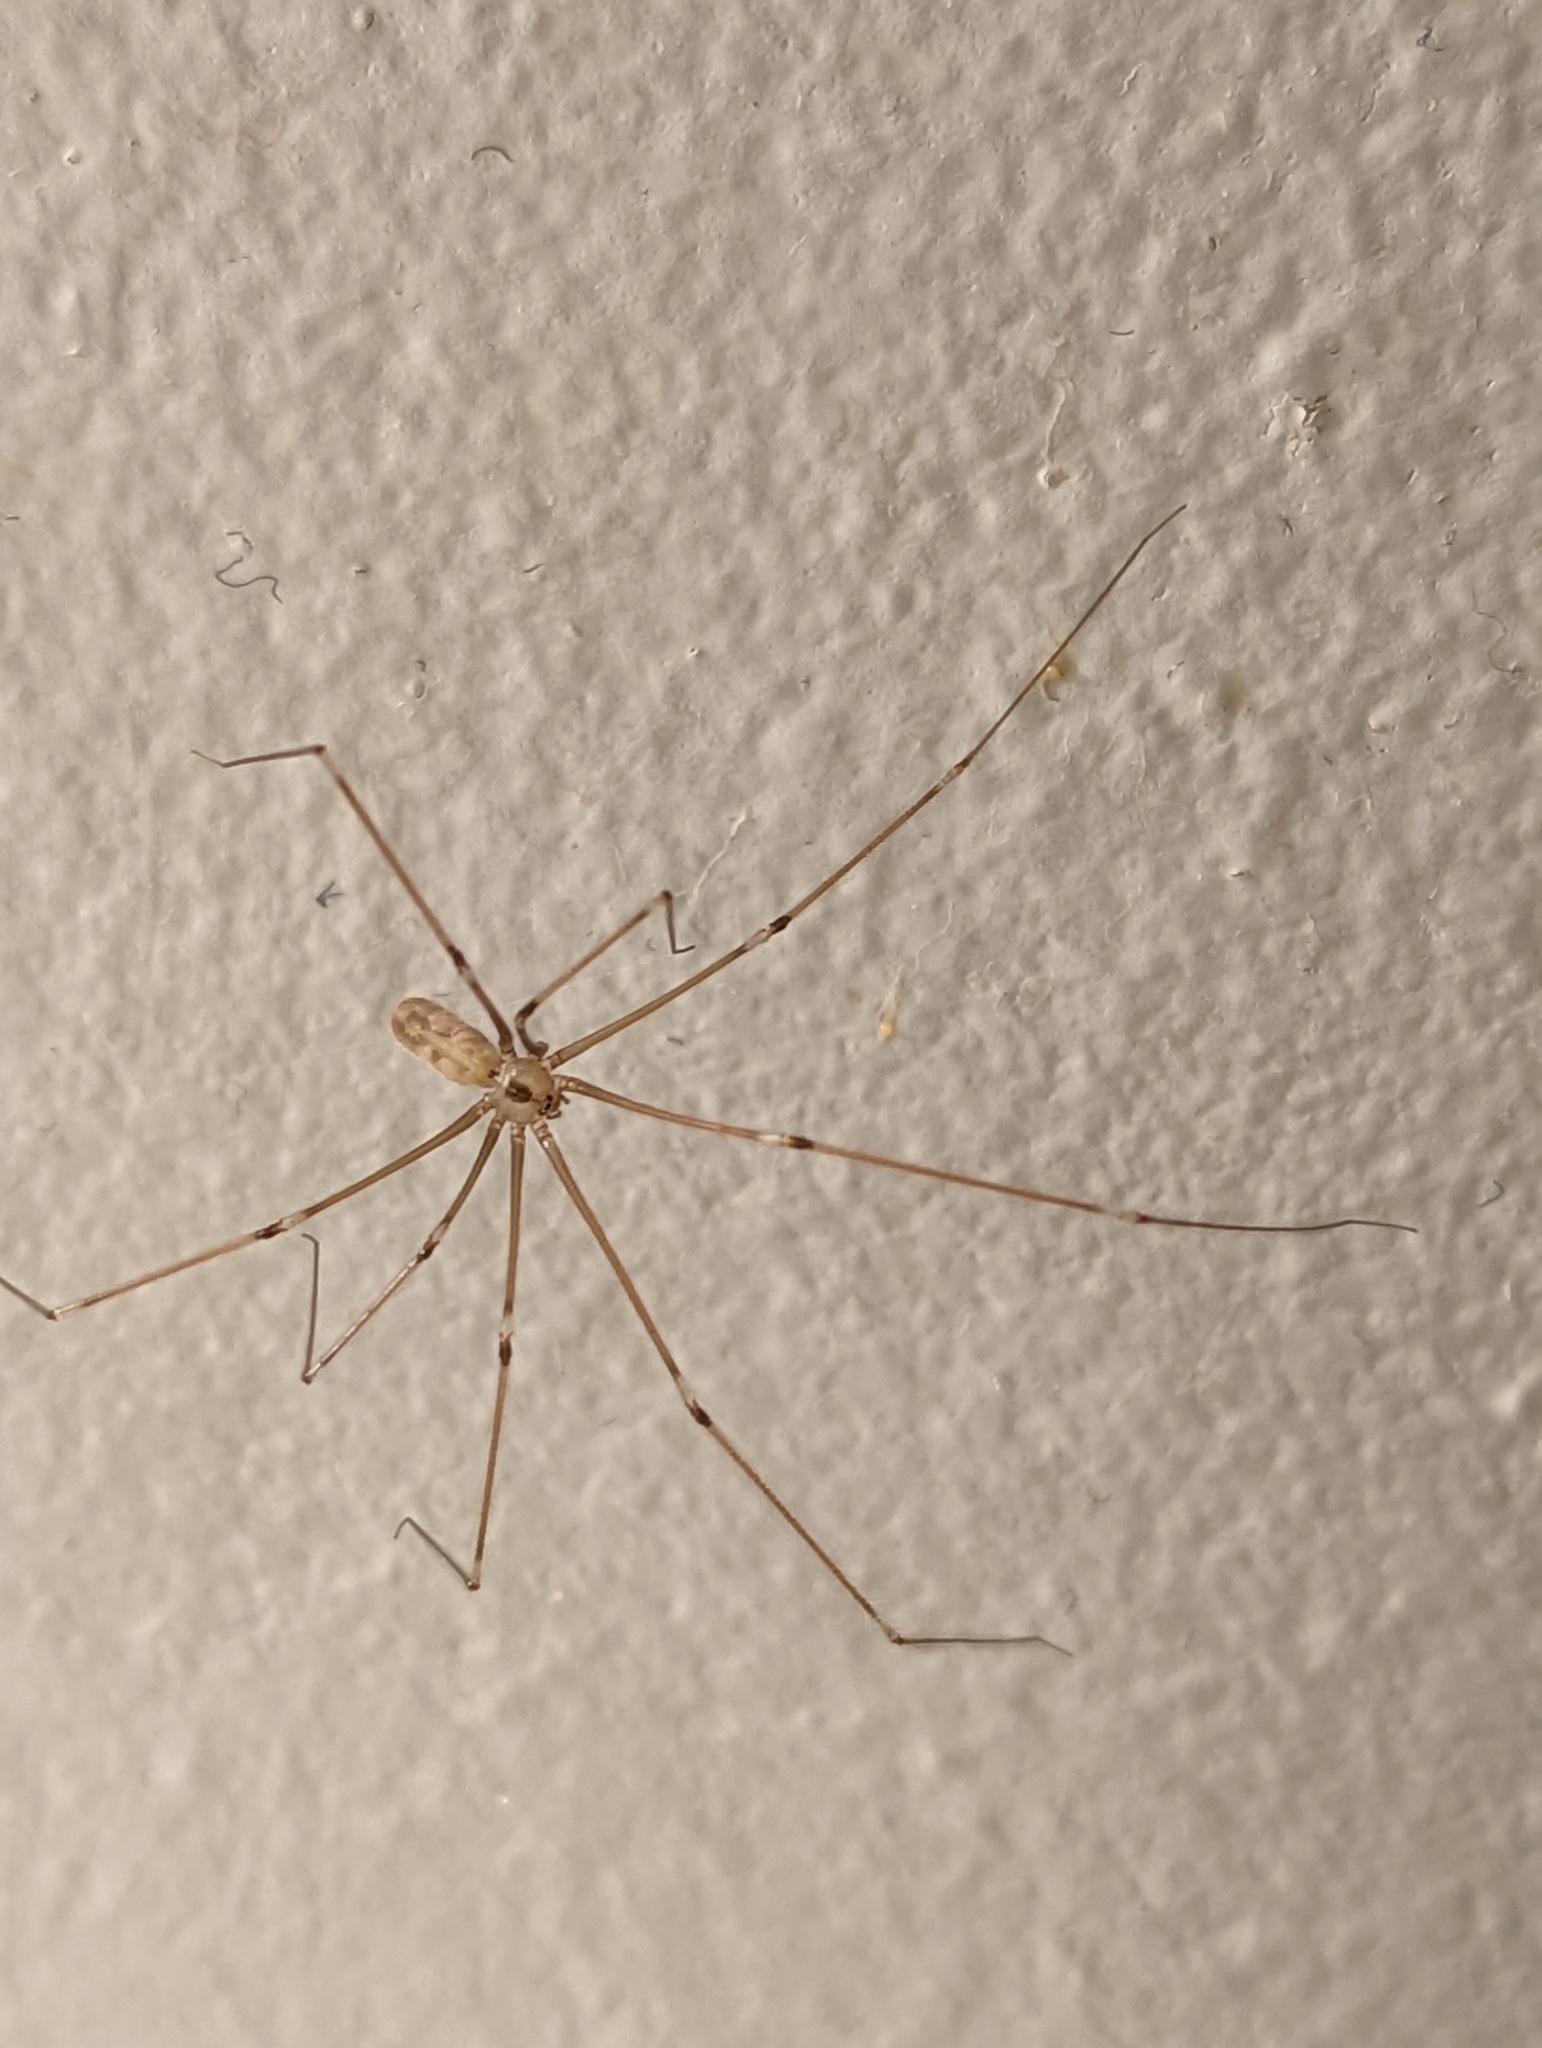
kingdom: Animalia
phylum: Arthropoda
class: Arachnida
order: Araneae
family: Pholcidae
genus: Pholcus
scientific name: Pholcus phalangioides
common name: Longbodied cellar spider
